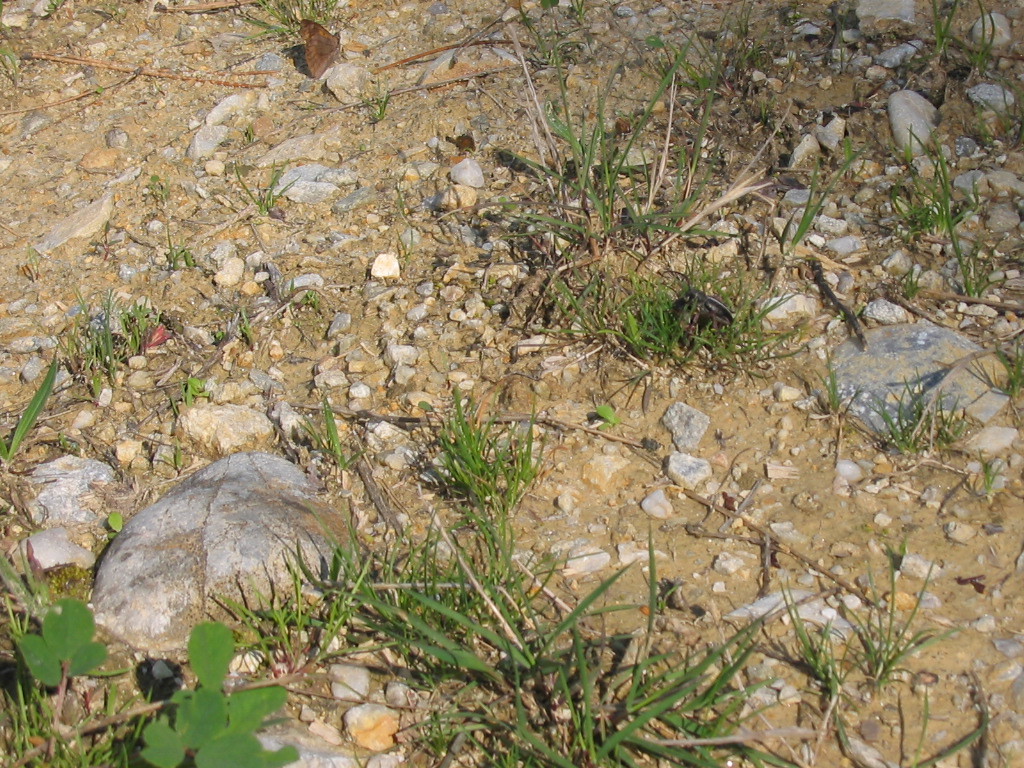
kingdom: Animalia
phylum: Arthropoda
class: Insecta
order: Lepidoptera
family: Nymphalidae
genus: Libythea
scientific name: Libythea celtis
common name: Nettle-tree butterfly
